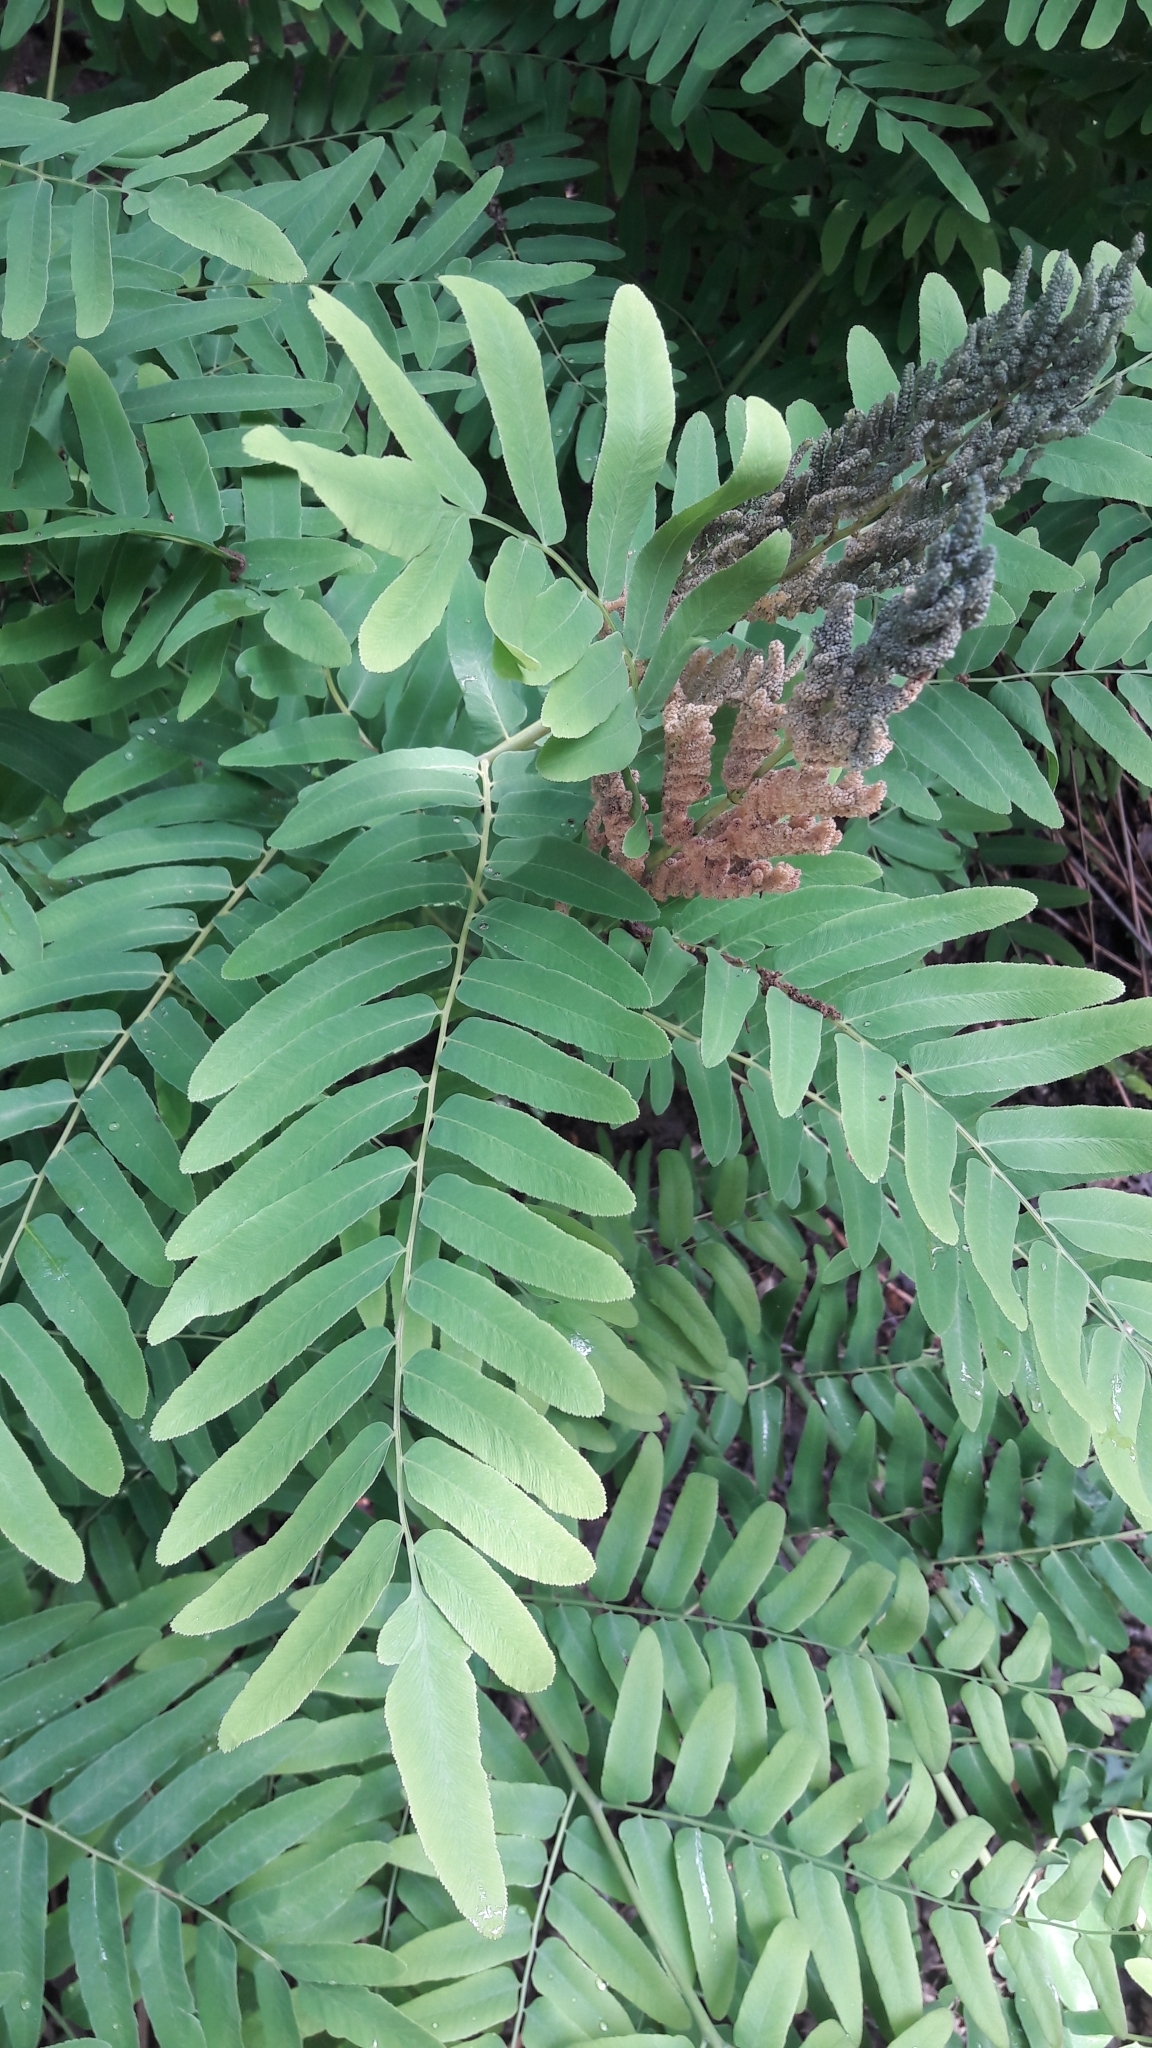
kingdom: Plantae
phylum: Tracheophyta
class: Polypodiopsida
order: Osmundales
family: Osmundaceae
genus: Osmunda
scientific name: Osmunda regalis
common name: Royal fern
